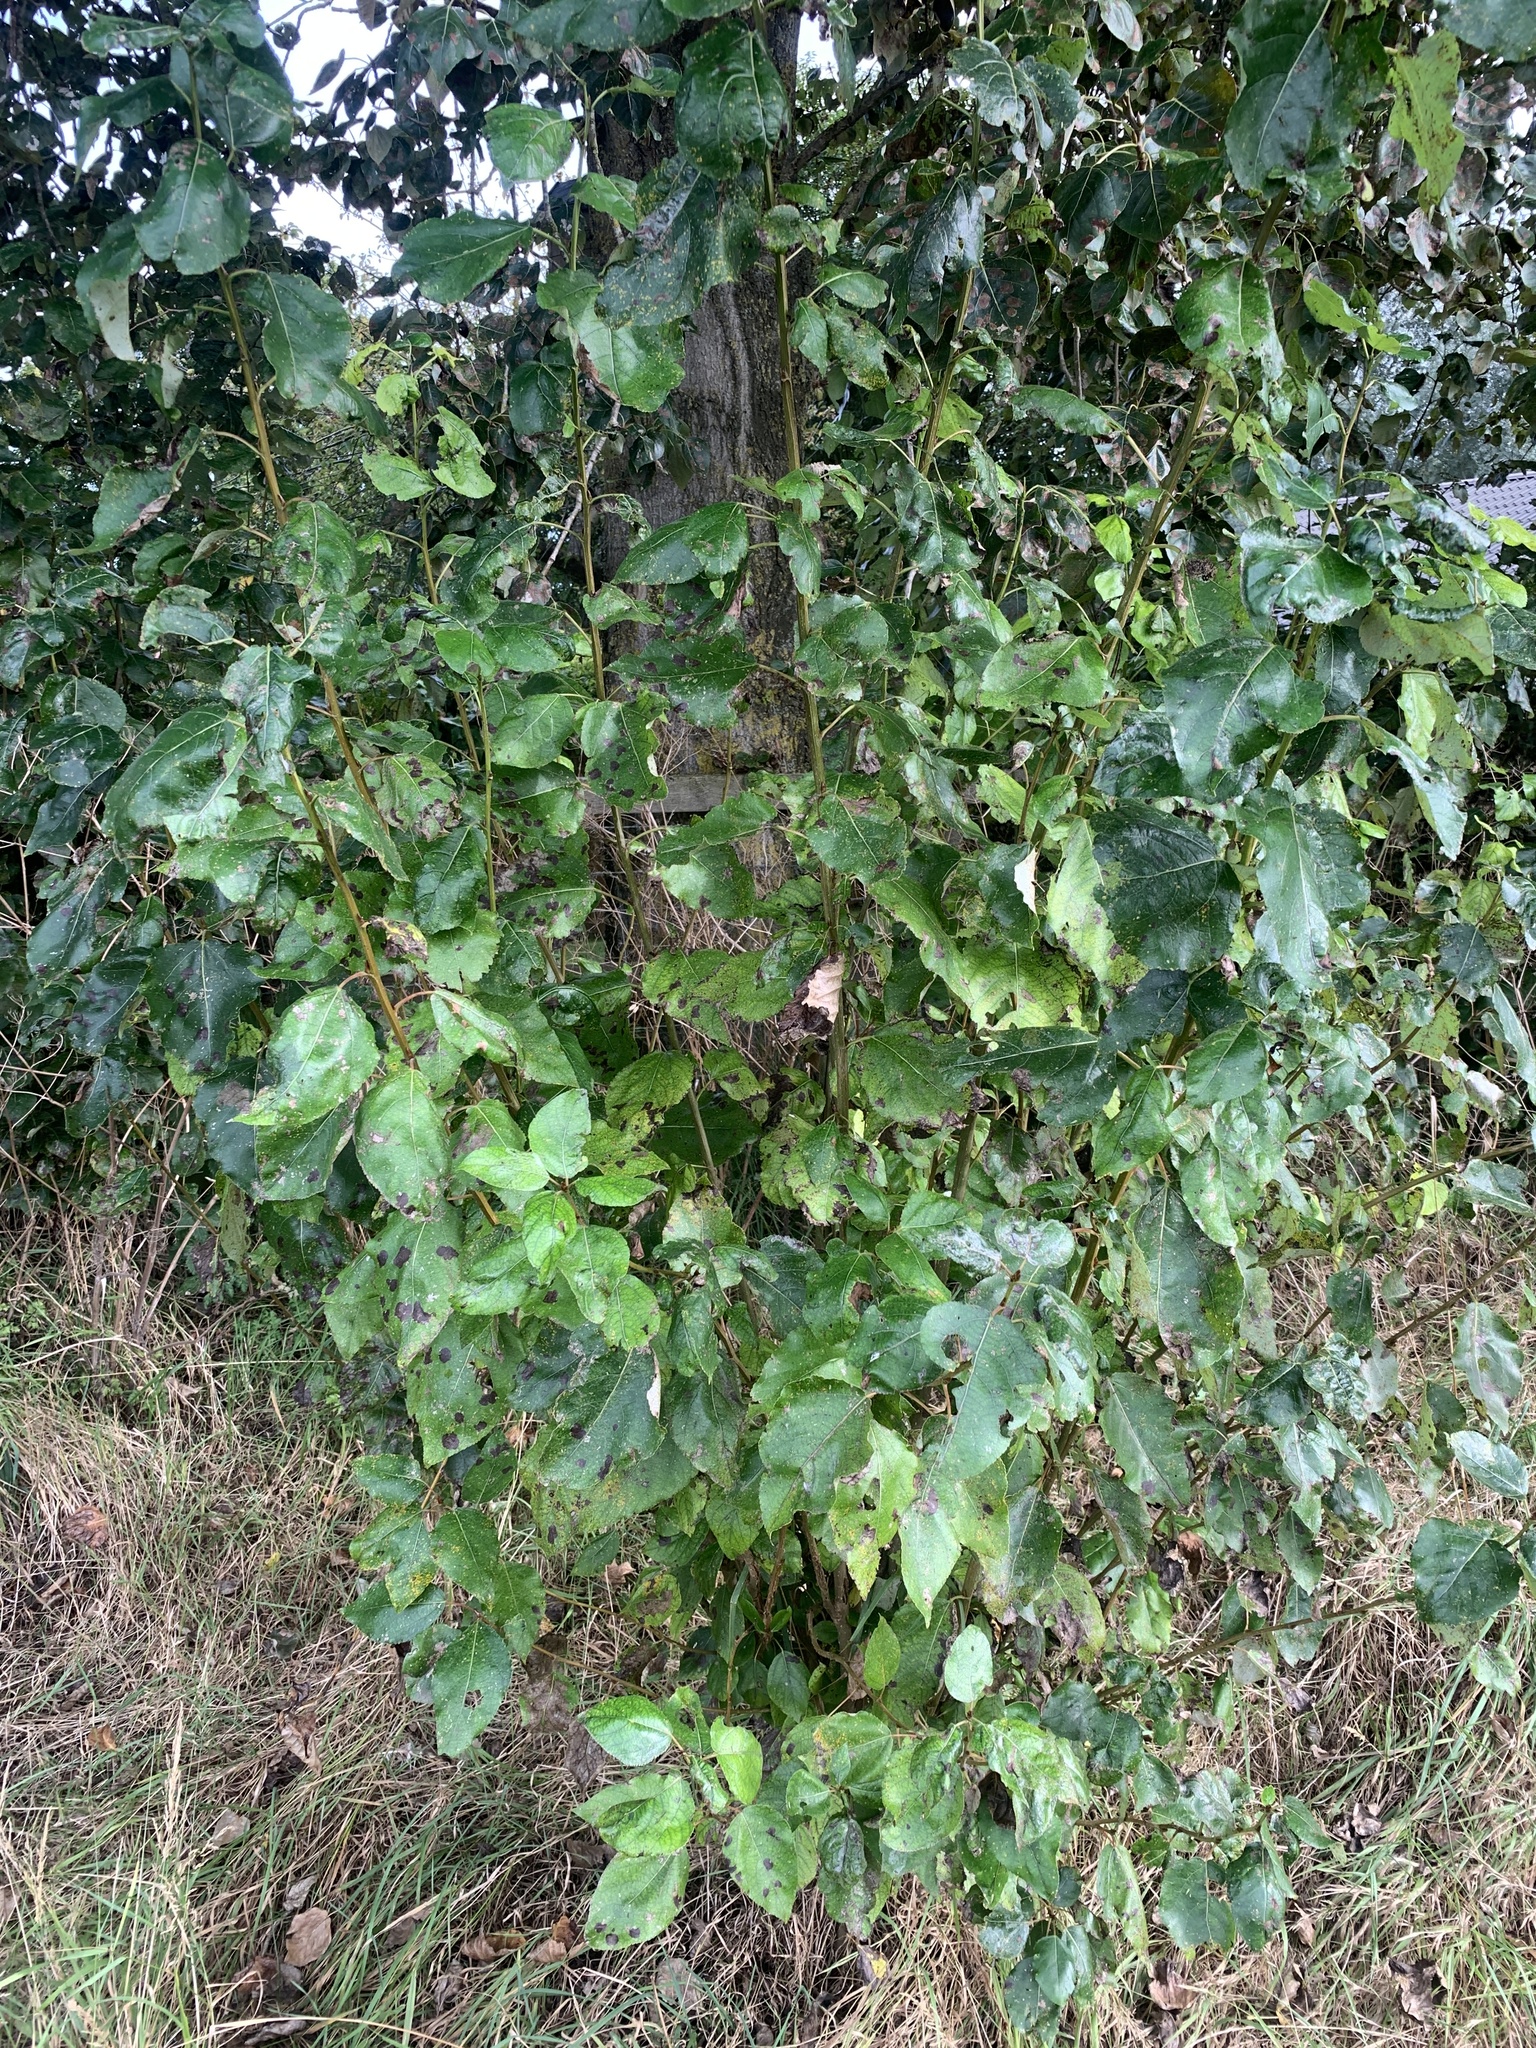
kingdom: Plantae
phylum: Tracheophyta
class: Magnoliopsida
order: Fagales
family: Betulaceae
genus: Alnus
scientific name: Alnus glutinosa
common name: Black alder
